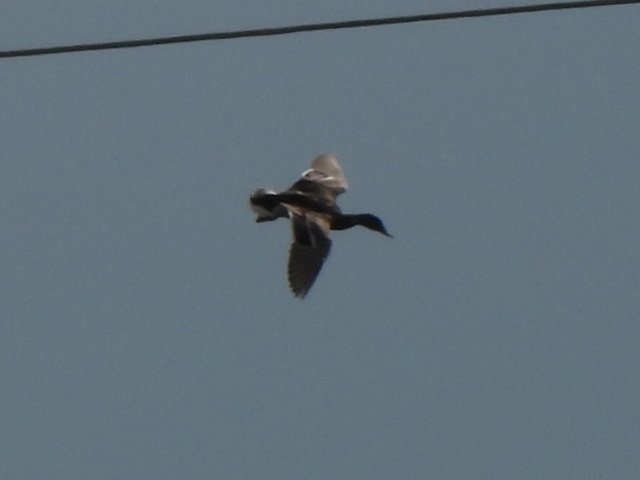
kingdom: Animalia
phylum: Chordata
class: Aves
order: Anseriformes
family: Anatidae
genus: Anas
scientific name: Anas platyrhynchos
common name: Mallard
